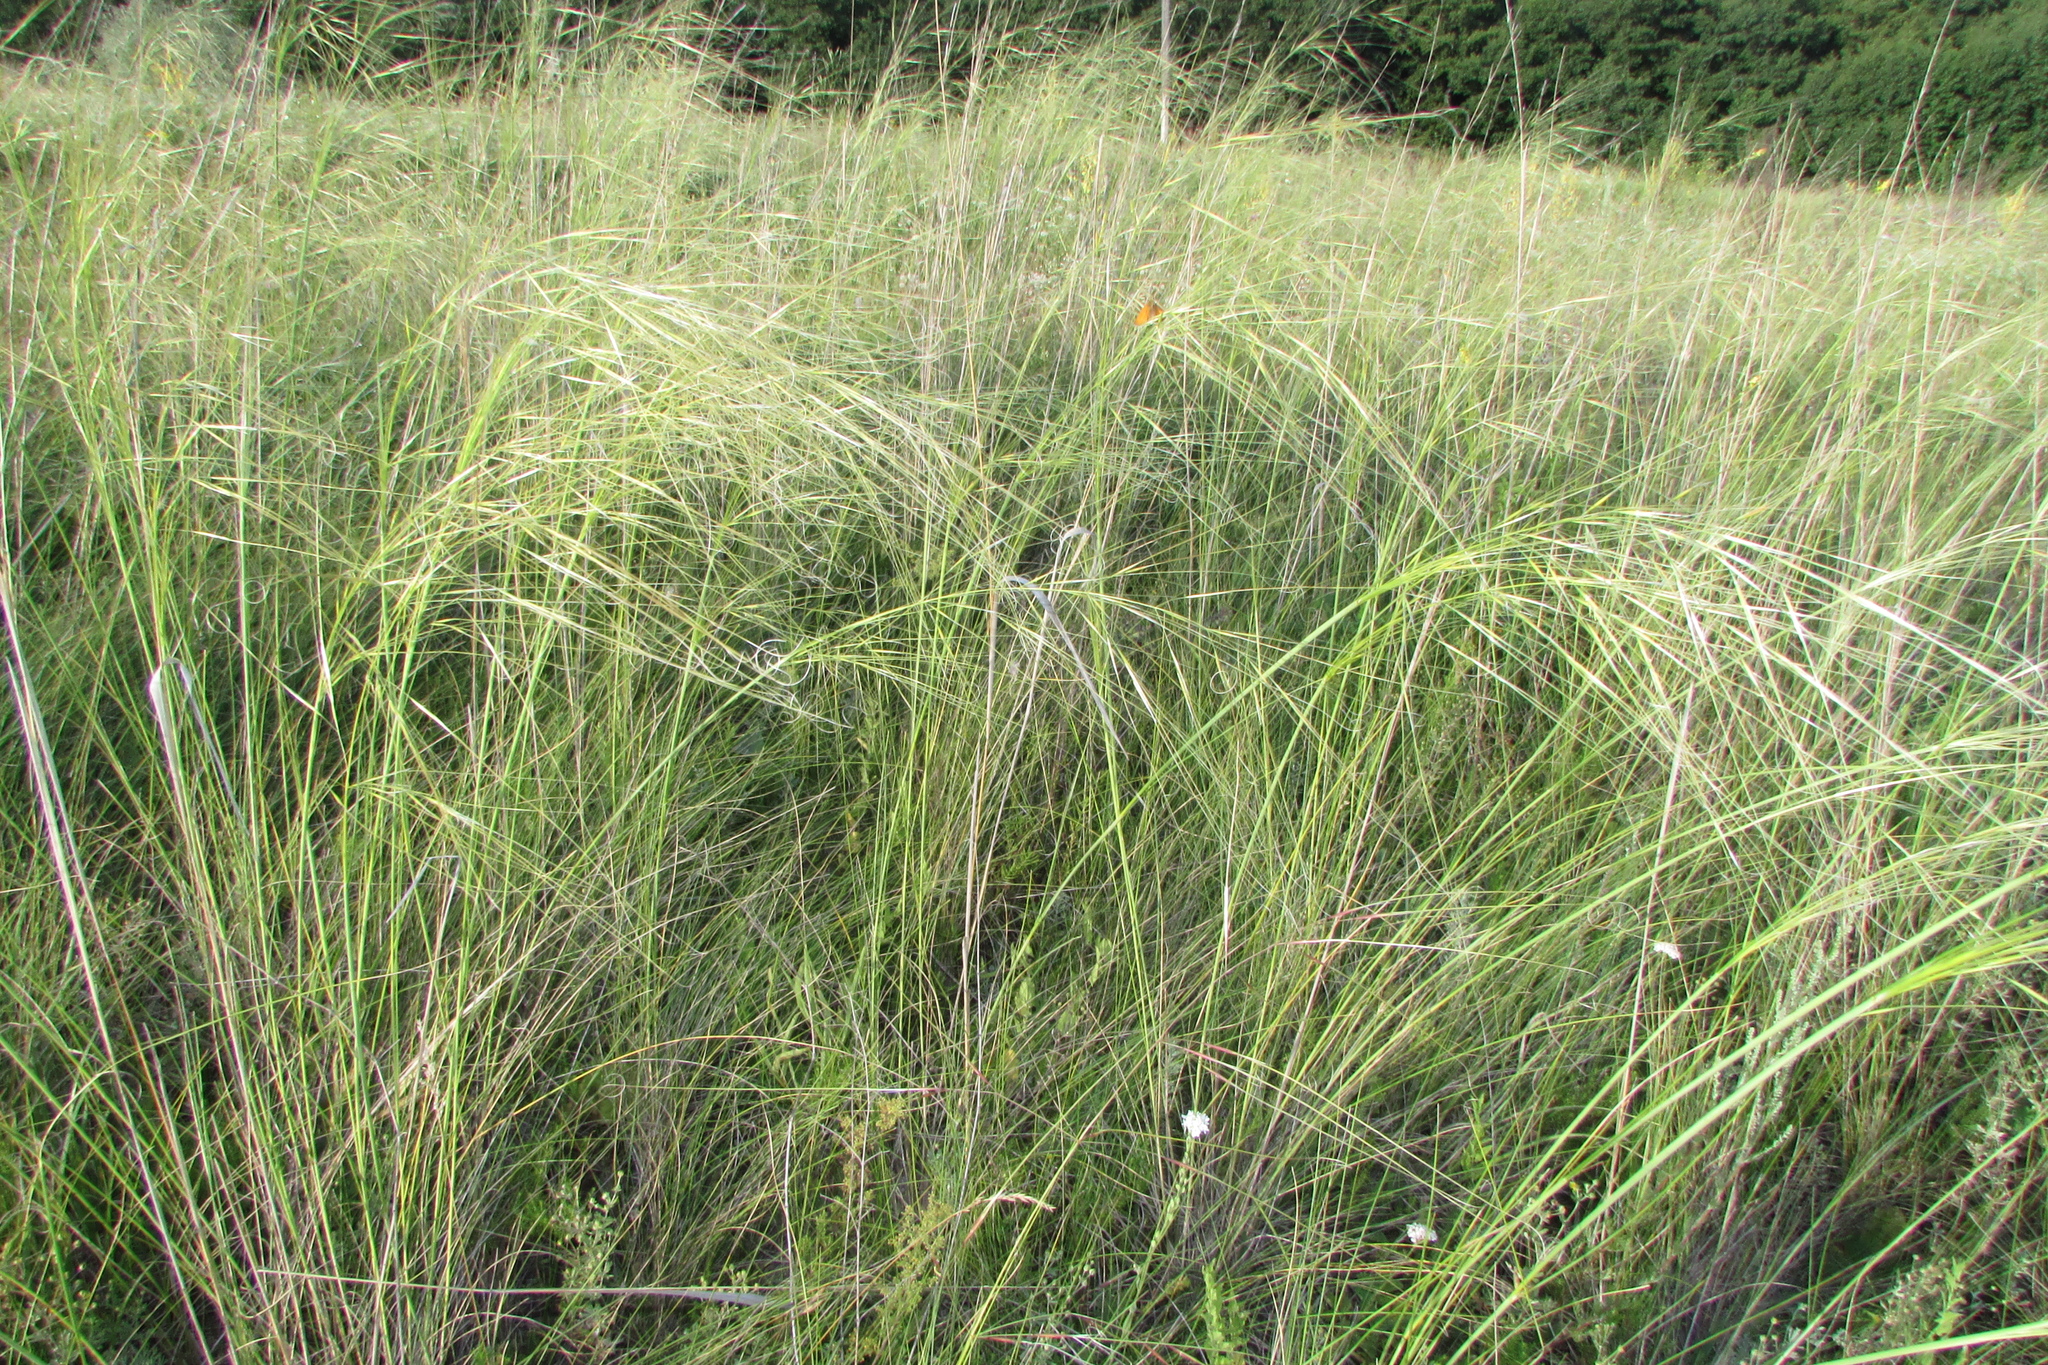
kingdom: Plantae
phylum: Tracheophyta
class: Liliopsida
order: Poales
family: Poaceae
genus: Stipa
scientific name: Stipa capillata
